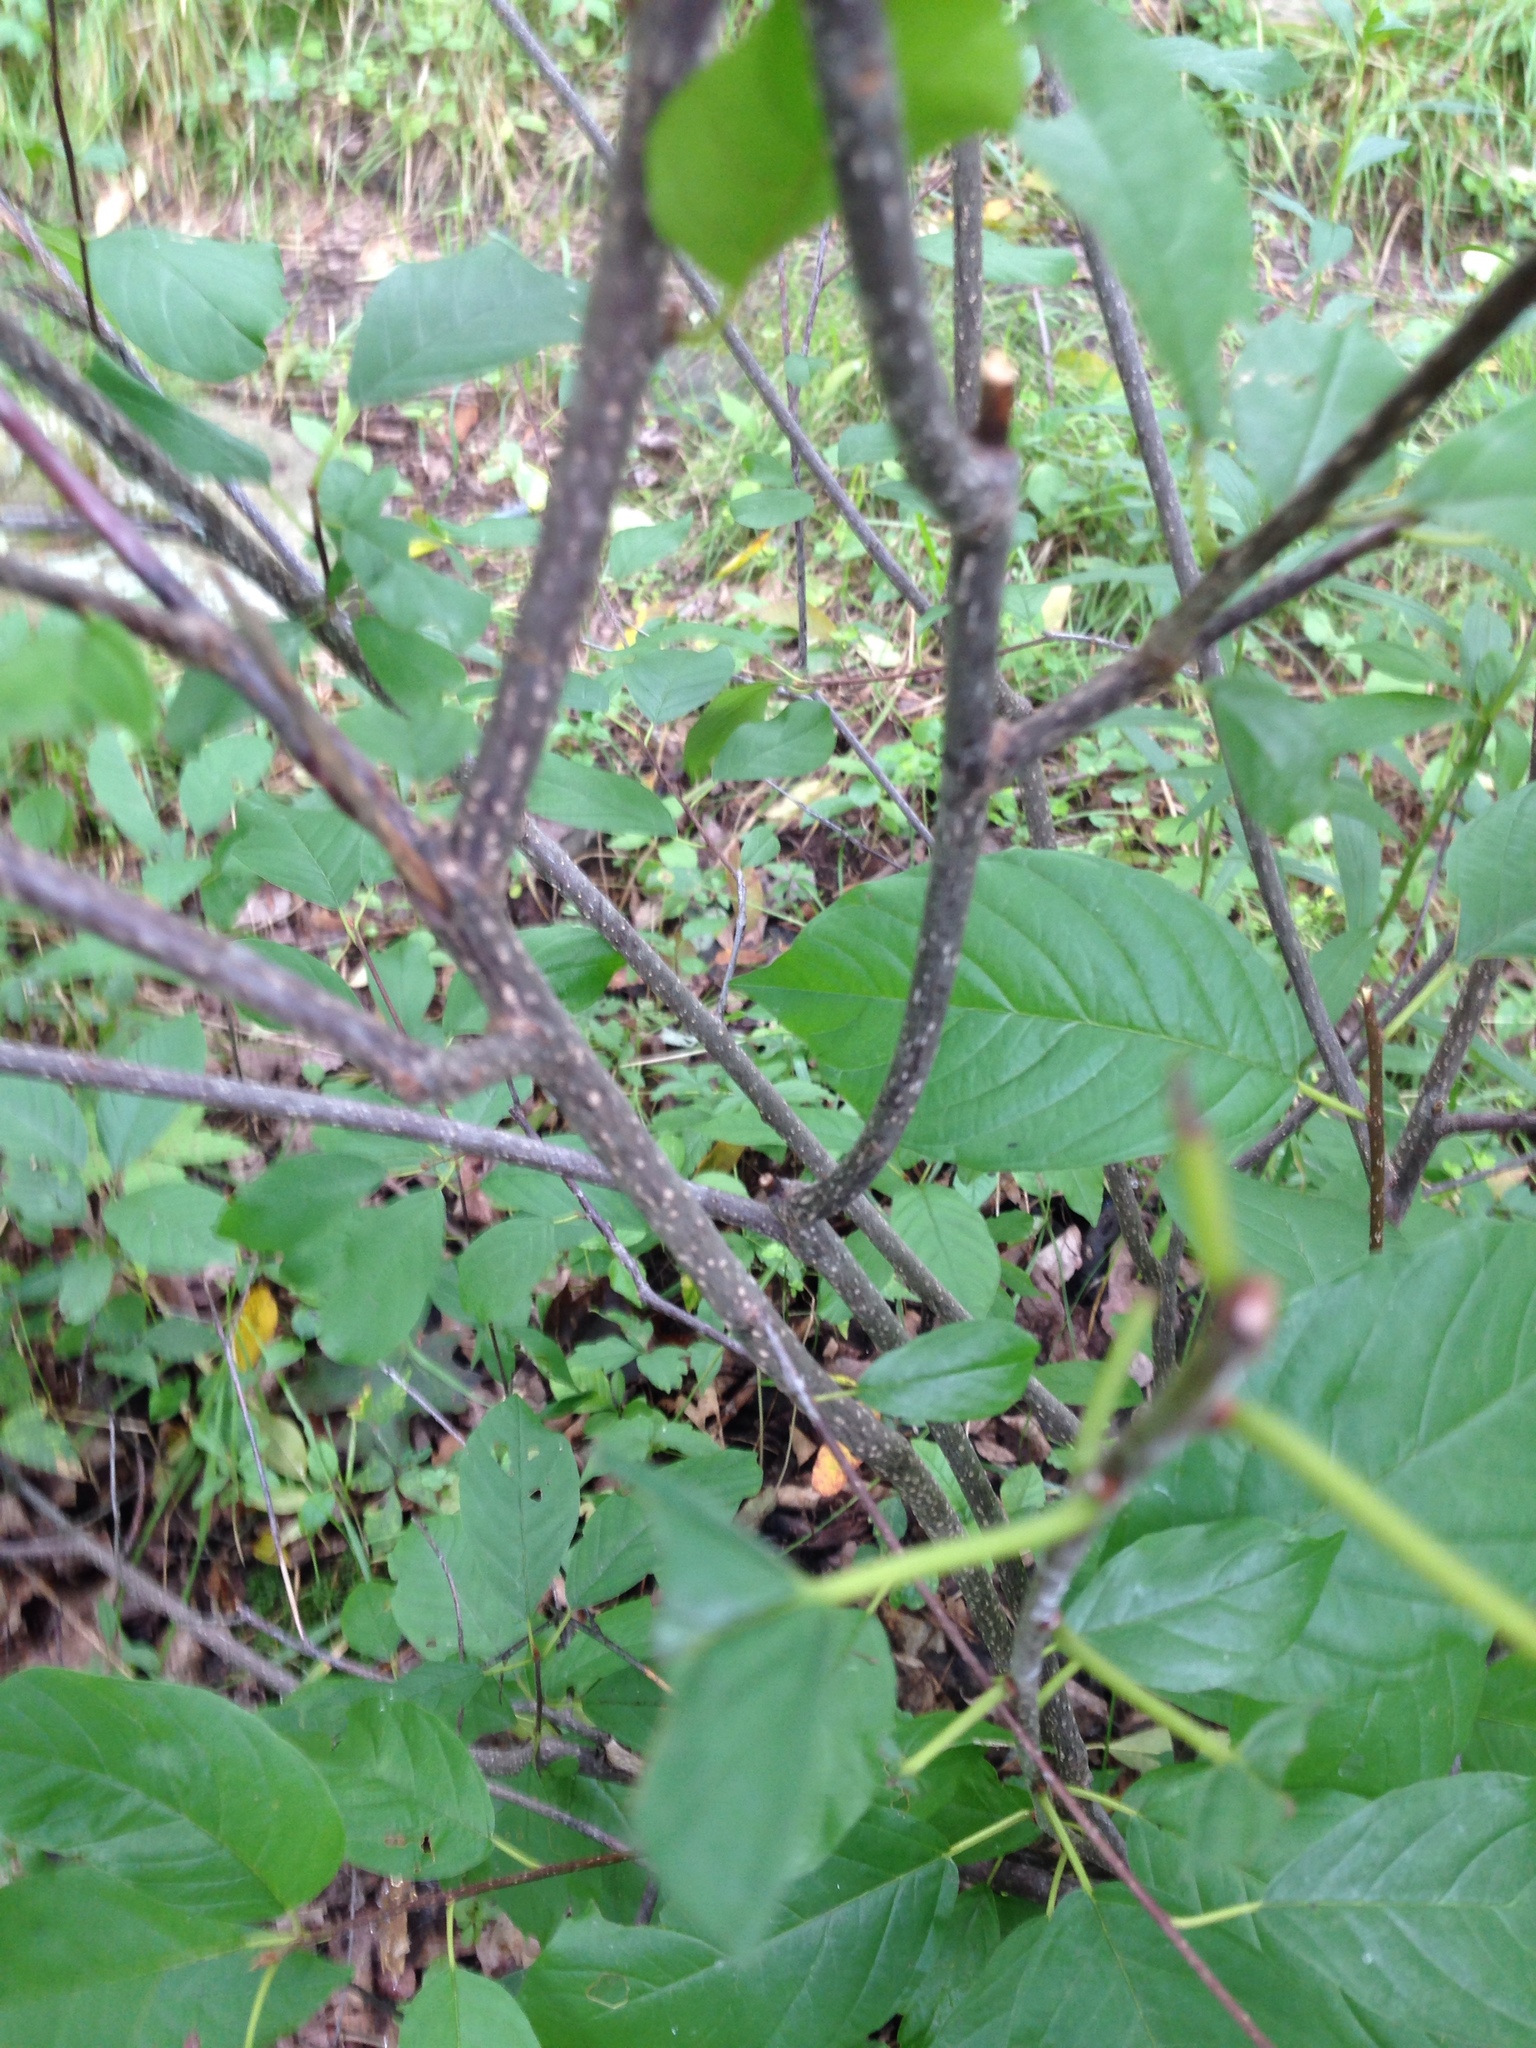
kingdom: Plantae
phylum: Tracheophyta
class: Magnoliopsida
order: Rosales
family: Rhamnaceae
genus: Frangula
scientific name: Frangula alnus
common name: Alder buckthorn
